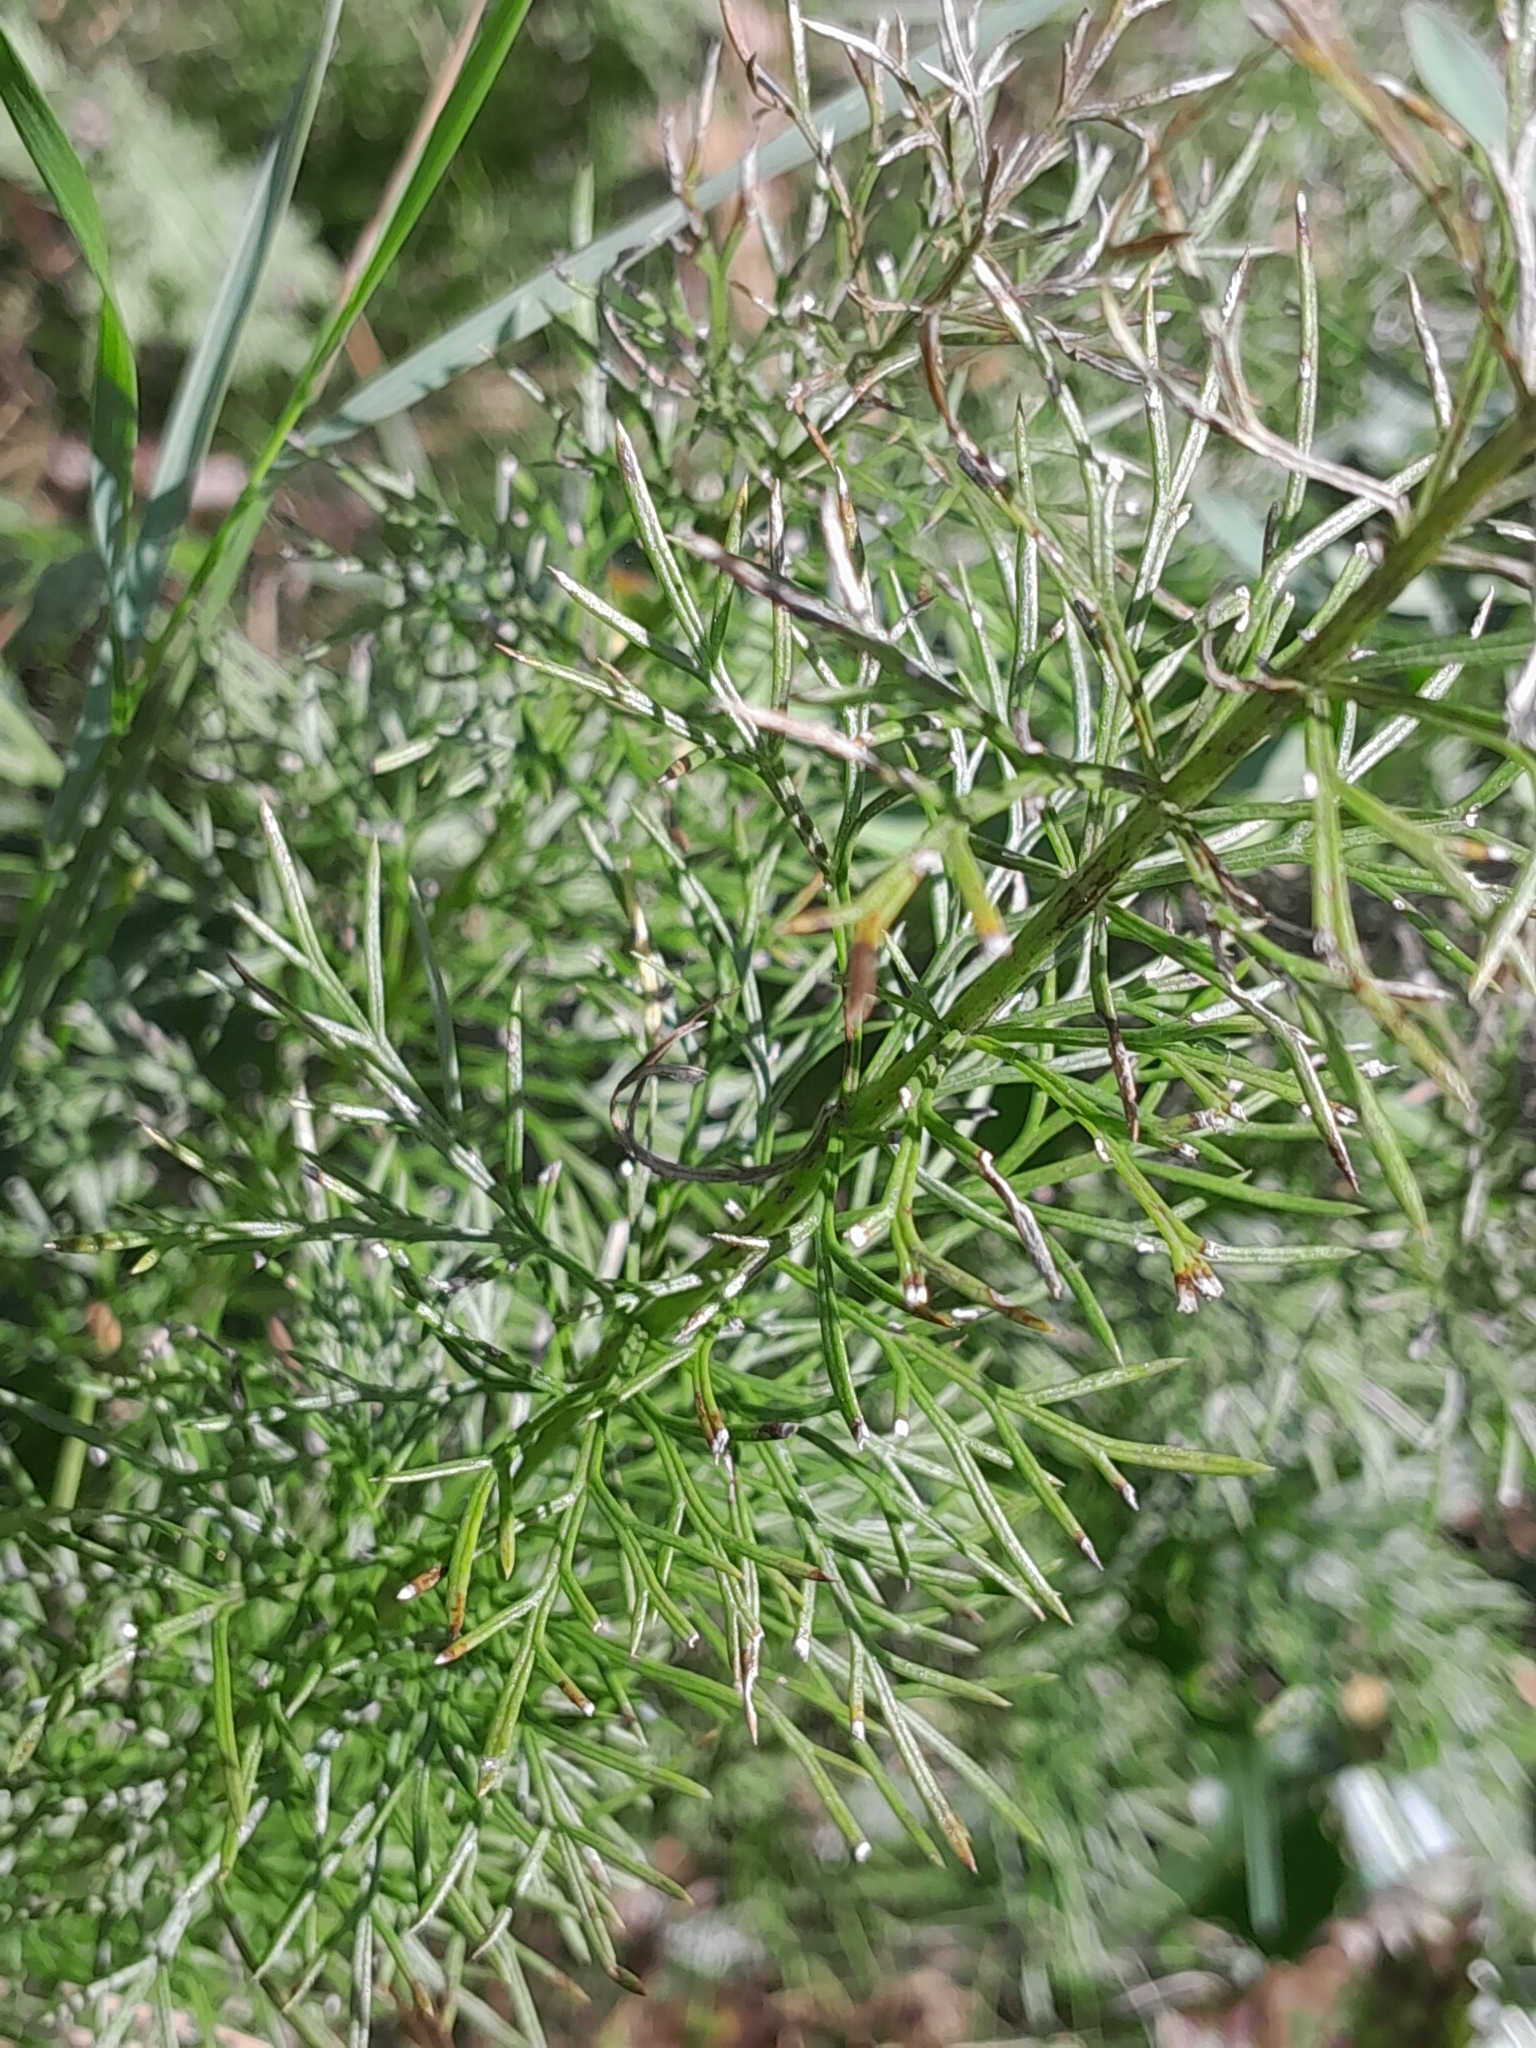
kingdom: Plantae
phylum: Tracheophyta
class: Magnoliopsida
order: Ranunculales
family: Ranunculaceae
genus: Adonis
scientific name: Adonis vernalis
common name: Yellow pheasants-eye
